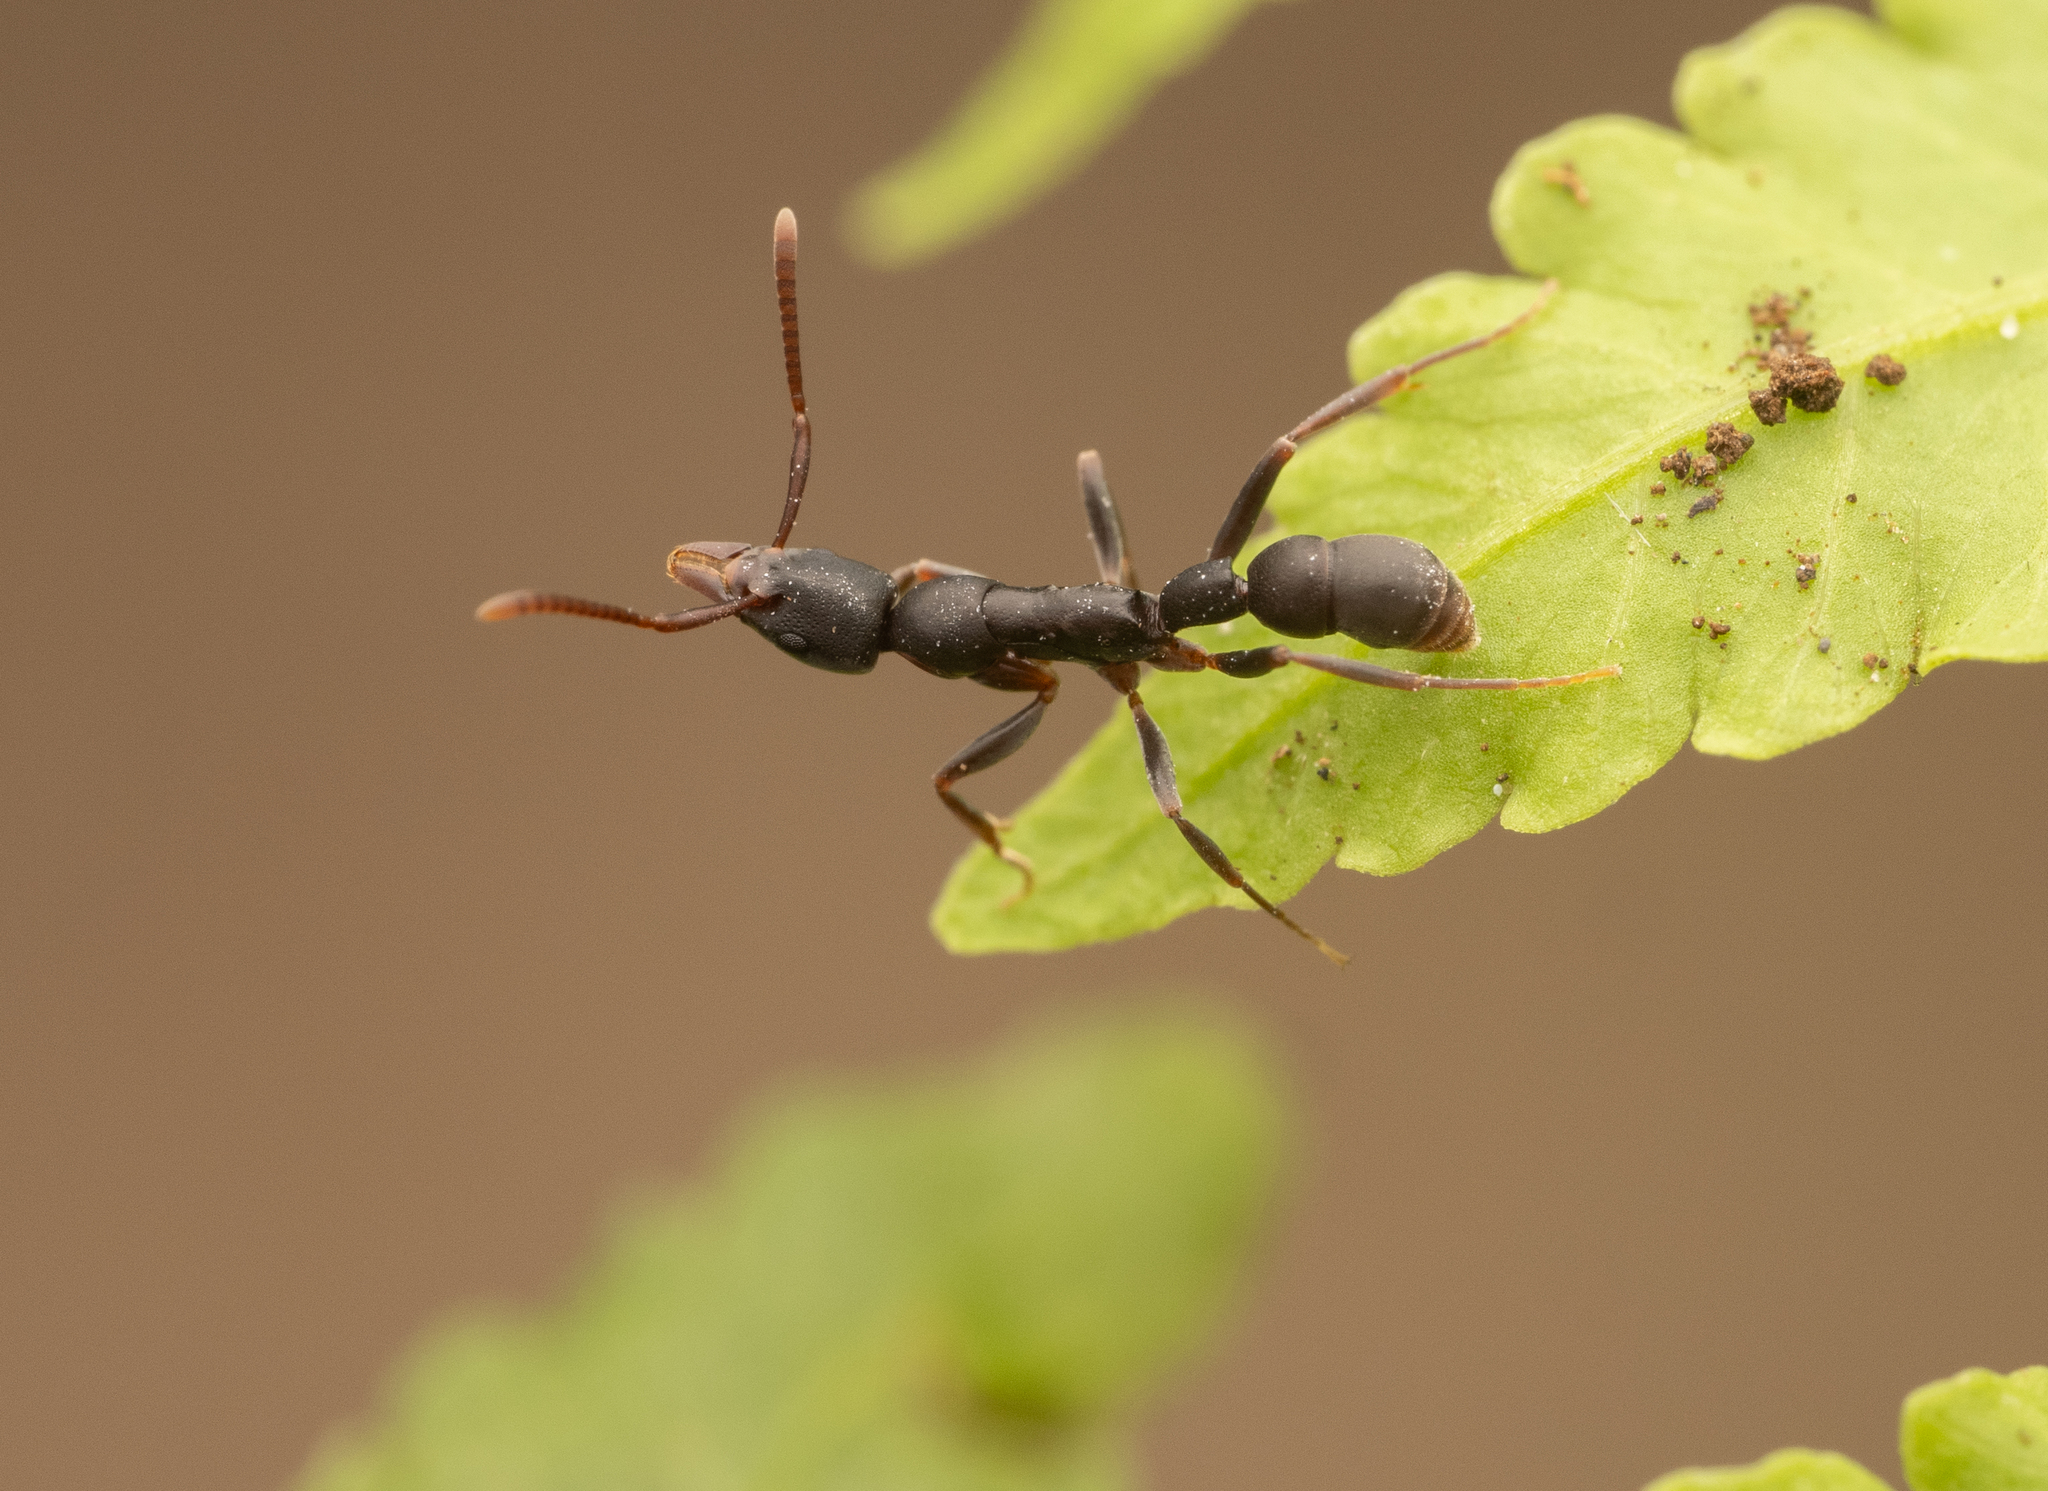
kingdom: Animalia
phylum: Arthropoda
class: Insecta
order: Hymenoptera
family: Formicidae
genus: Platythyrea
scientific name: Platythyrea
